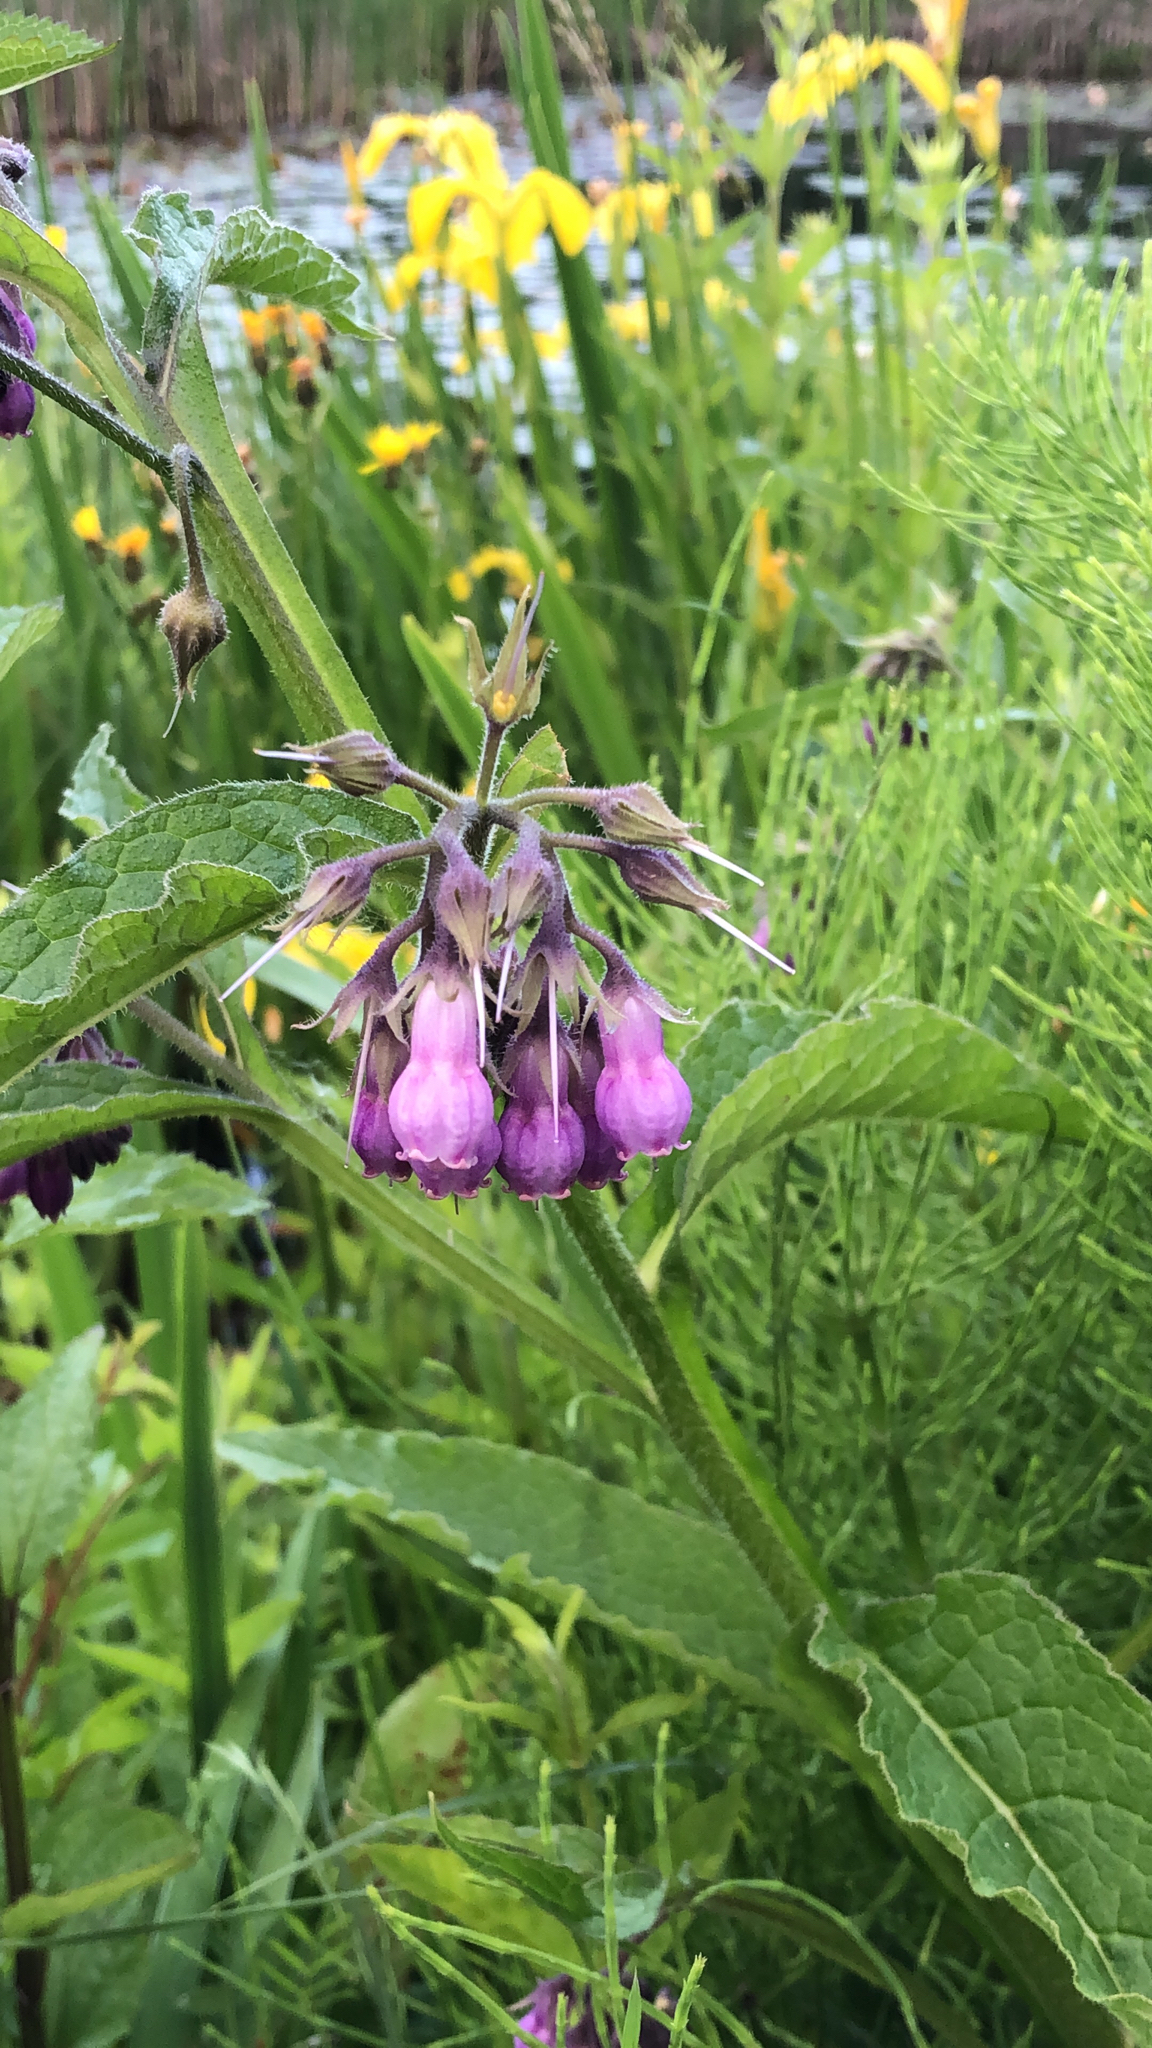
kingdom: Plantae
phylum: Tracheophyta
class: Magnoliopsida
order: Boraginales
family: Boraginaceae
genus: Symphytum
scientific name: Symphytum officinale
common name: Common comfrey
